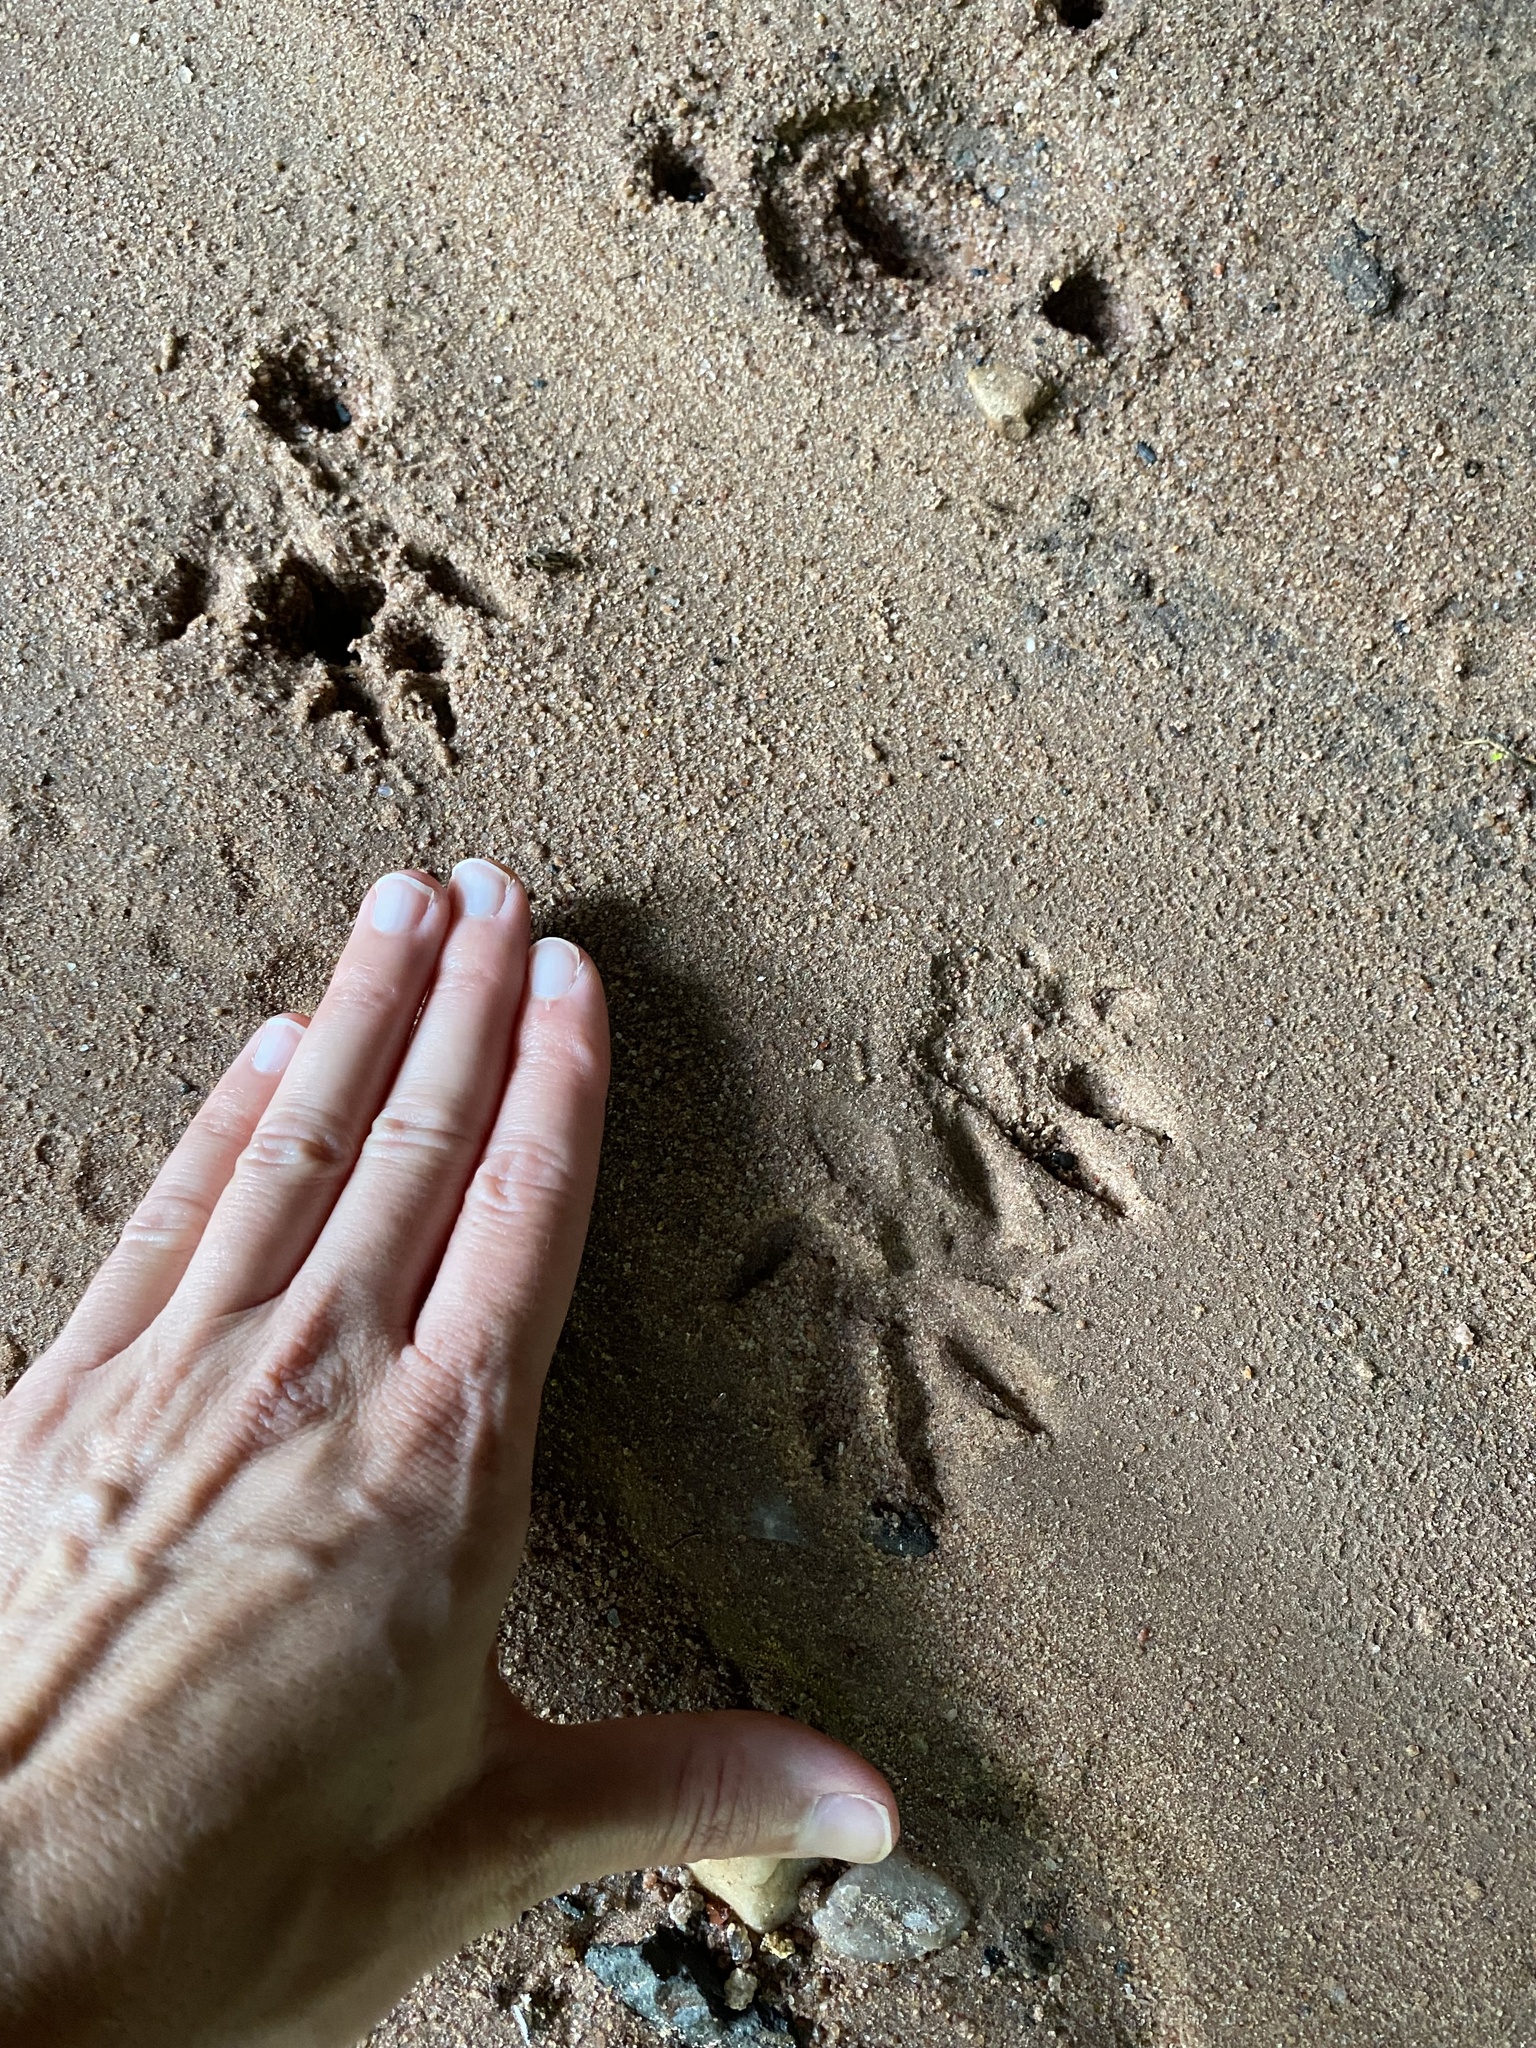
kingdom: Animalia
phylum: Chordata
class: Mammalia
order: Carnivora
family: Herpestidae
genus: Atilax
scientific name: Atilax paludinosus
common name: Marsh mongoose
